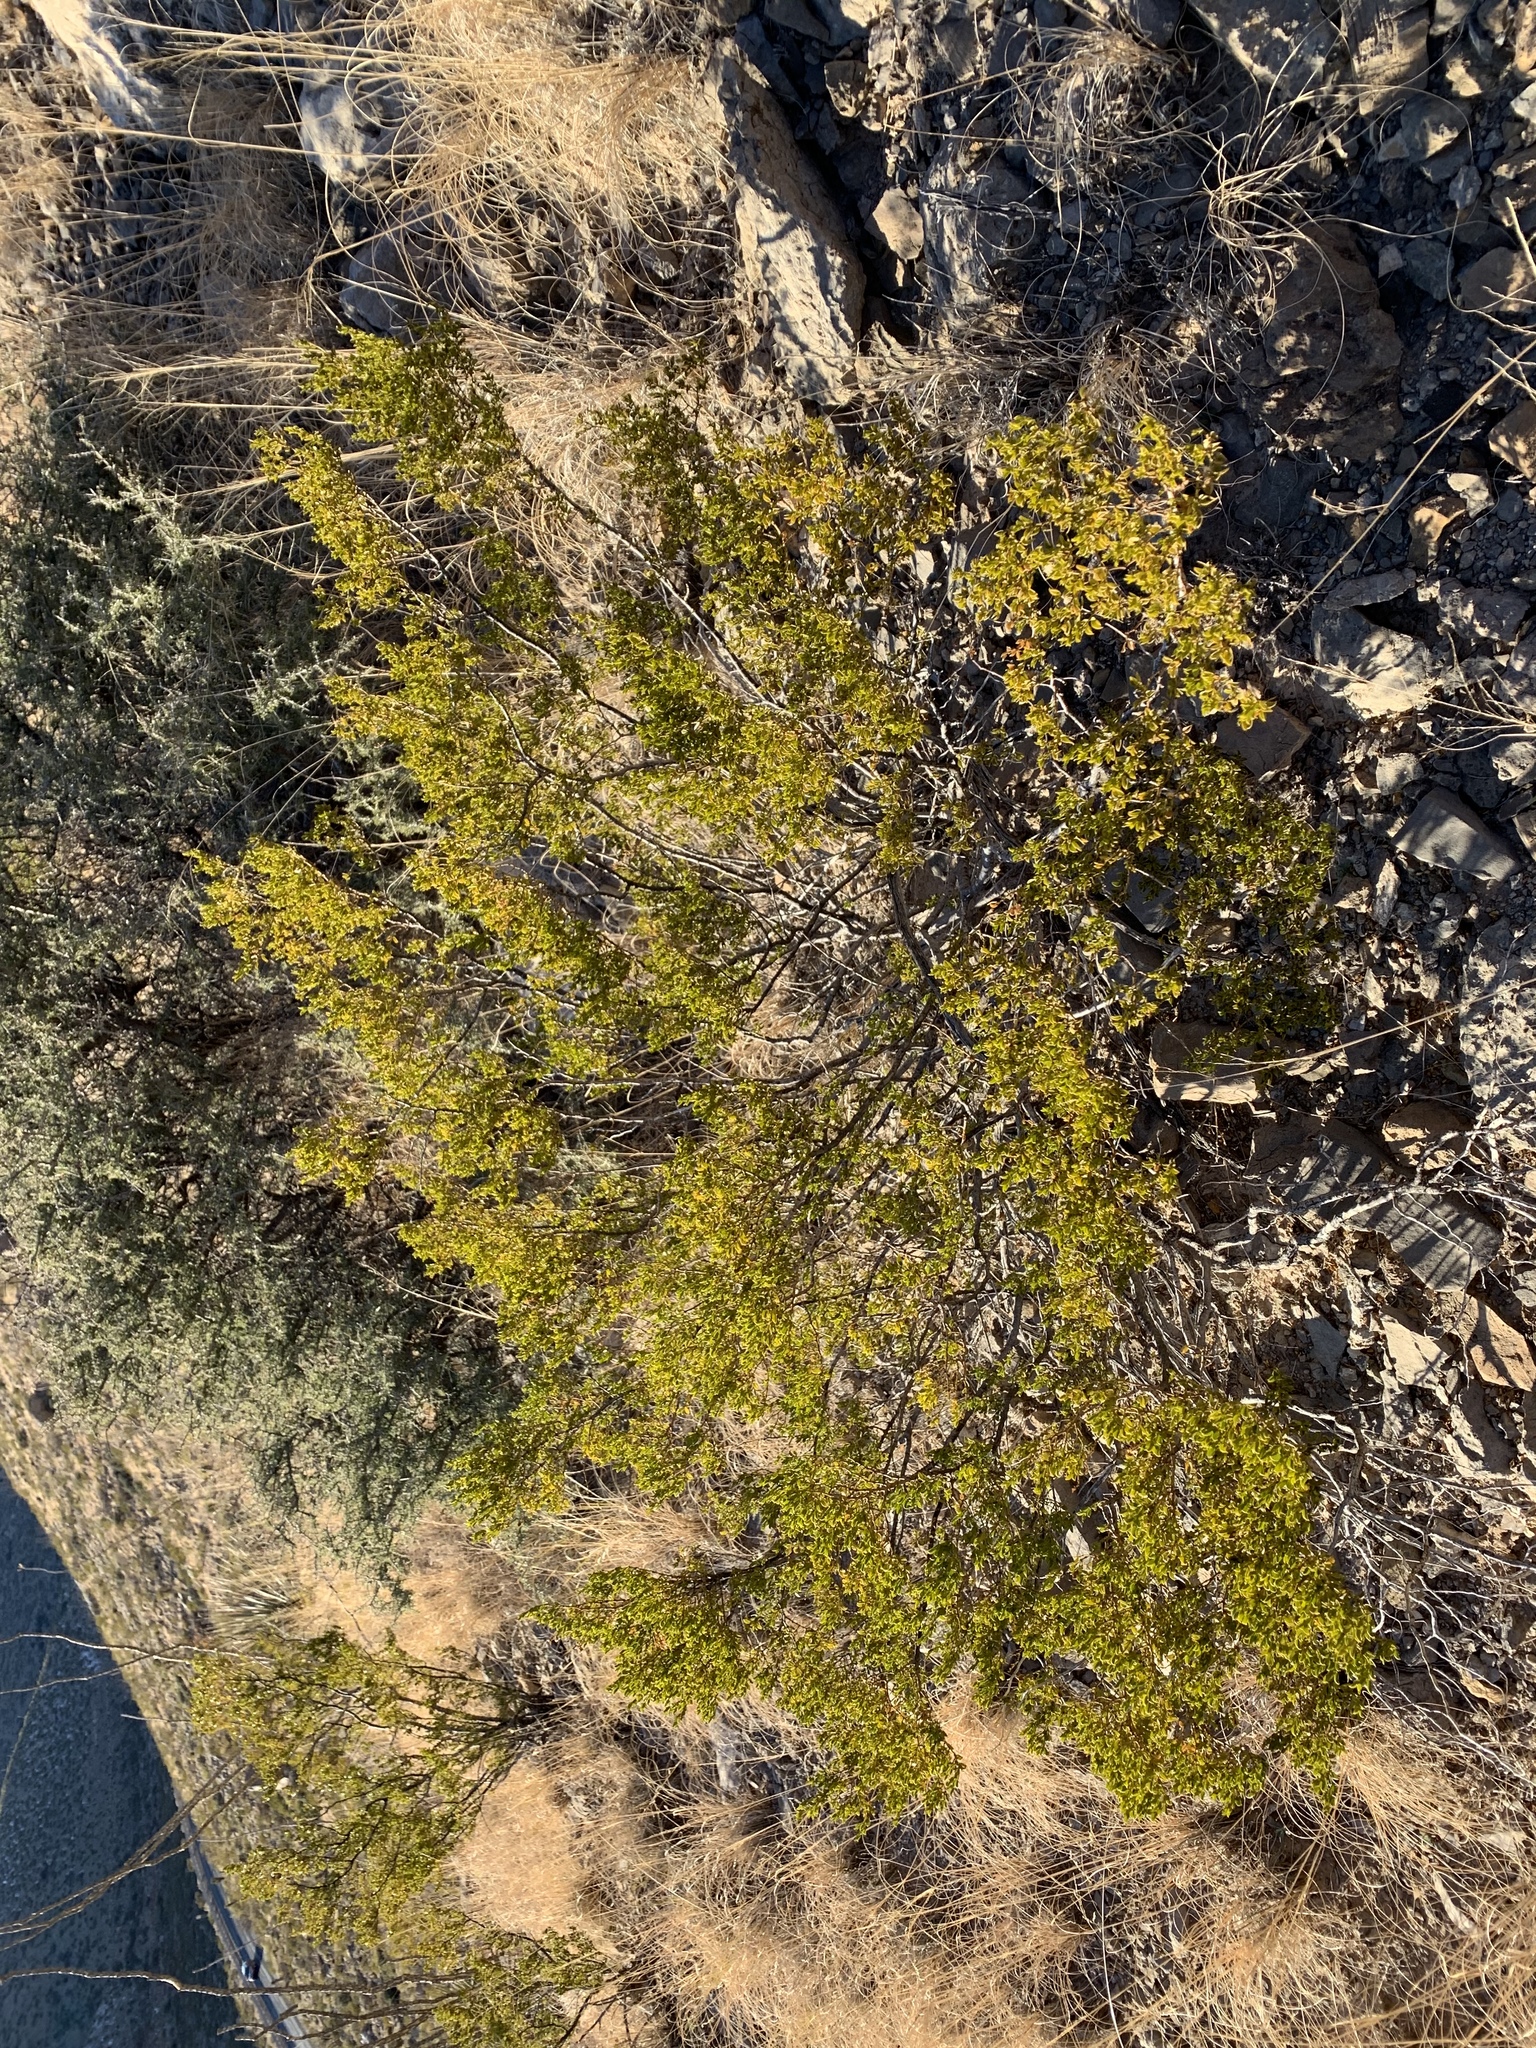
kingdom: Plantae
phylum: Tracheophyta
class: Magnoliopsida
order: Zygophyllales
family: Zygophyllaceae
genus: Larrea
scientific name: Larrea tridentata
